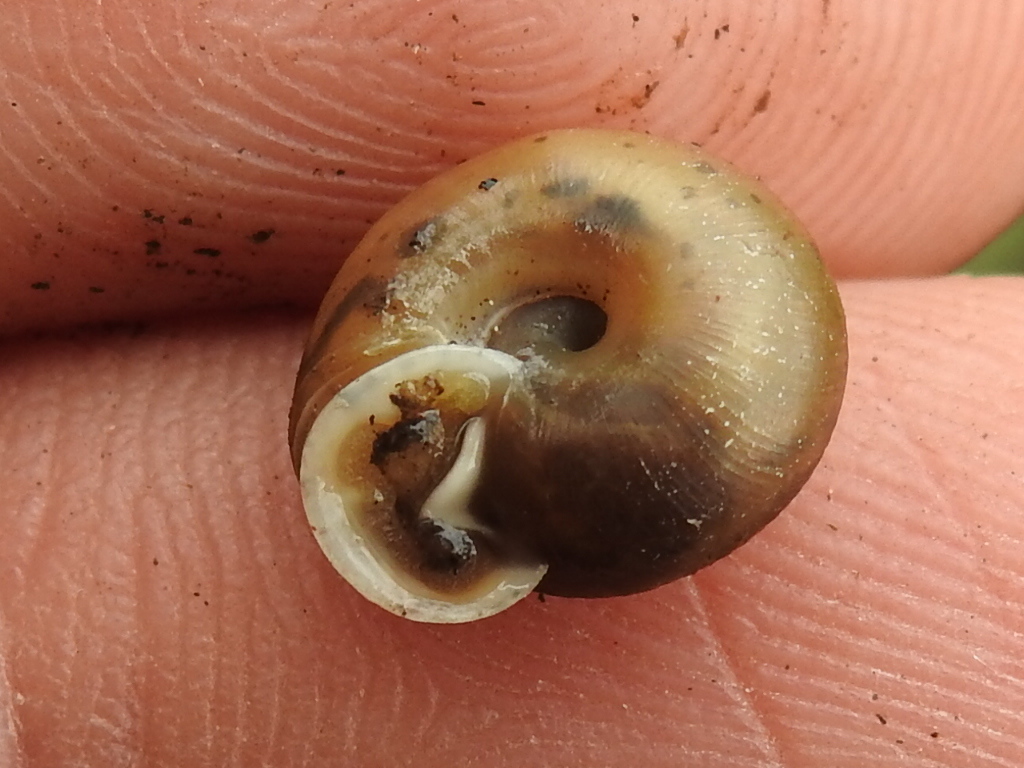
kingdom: Animalia
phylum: Mollusca
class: Gastropoda
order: Stylommatophora
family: Polygyridae
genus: Linisa
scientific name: Linisa texasiana
